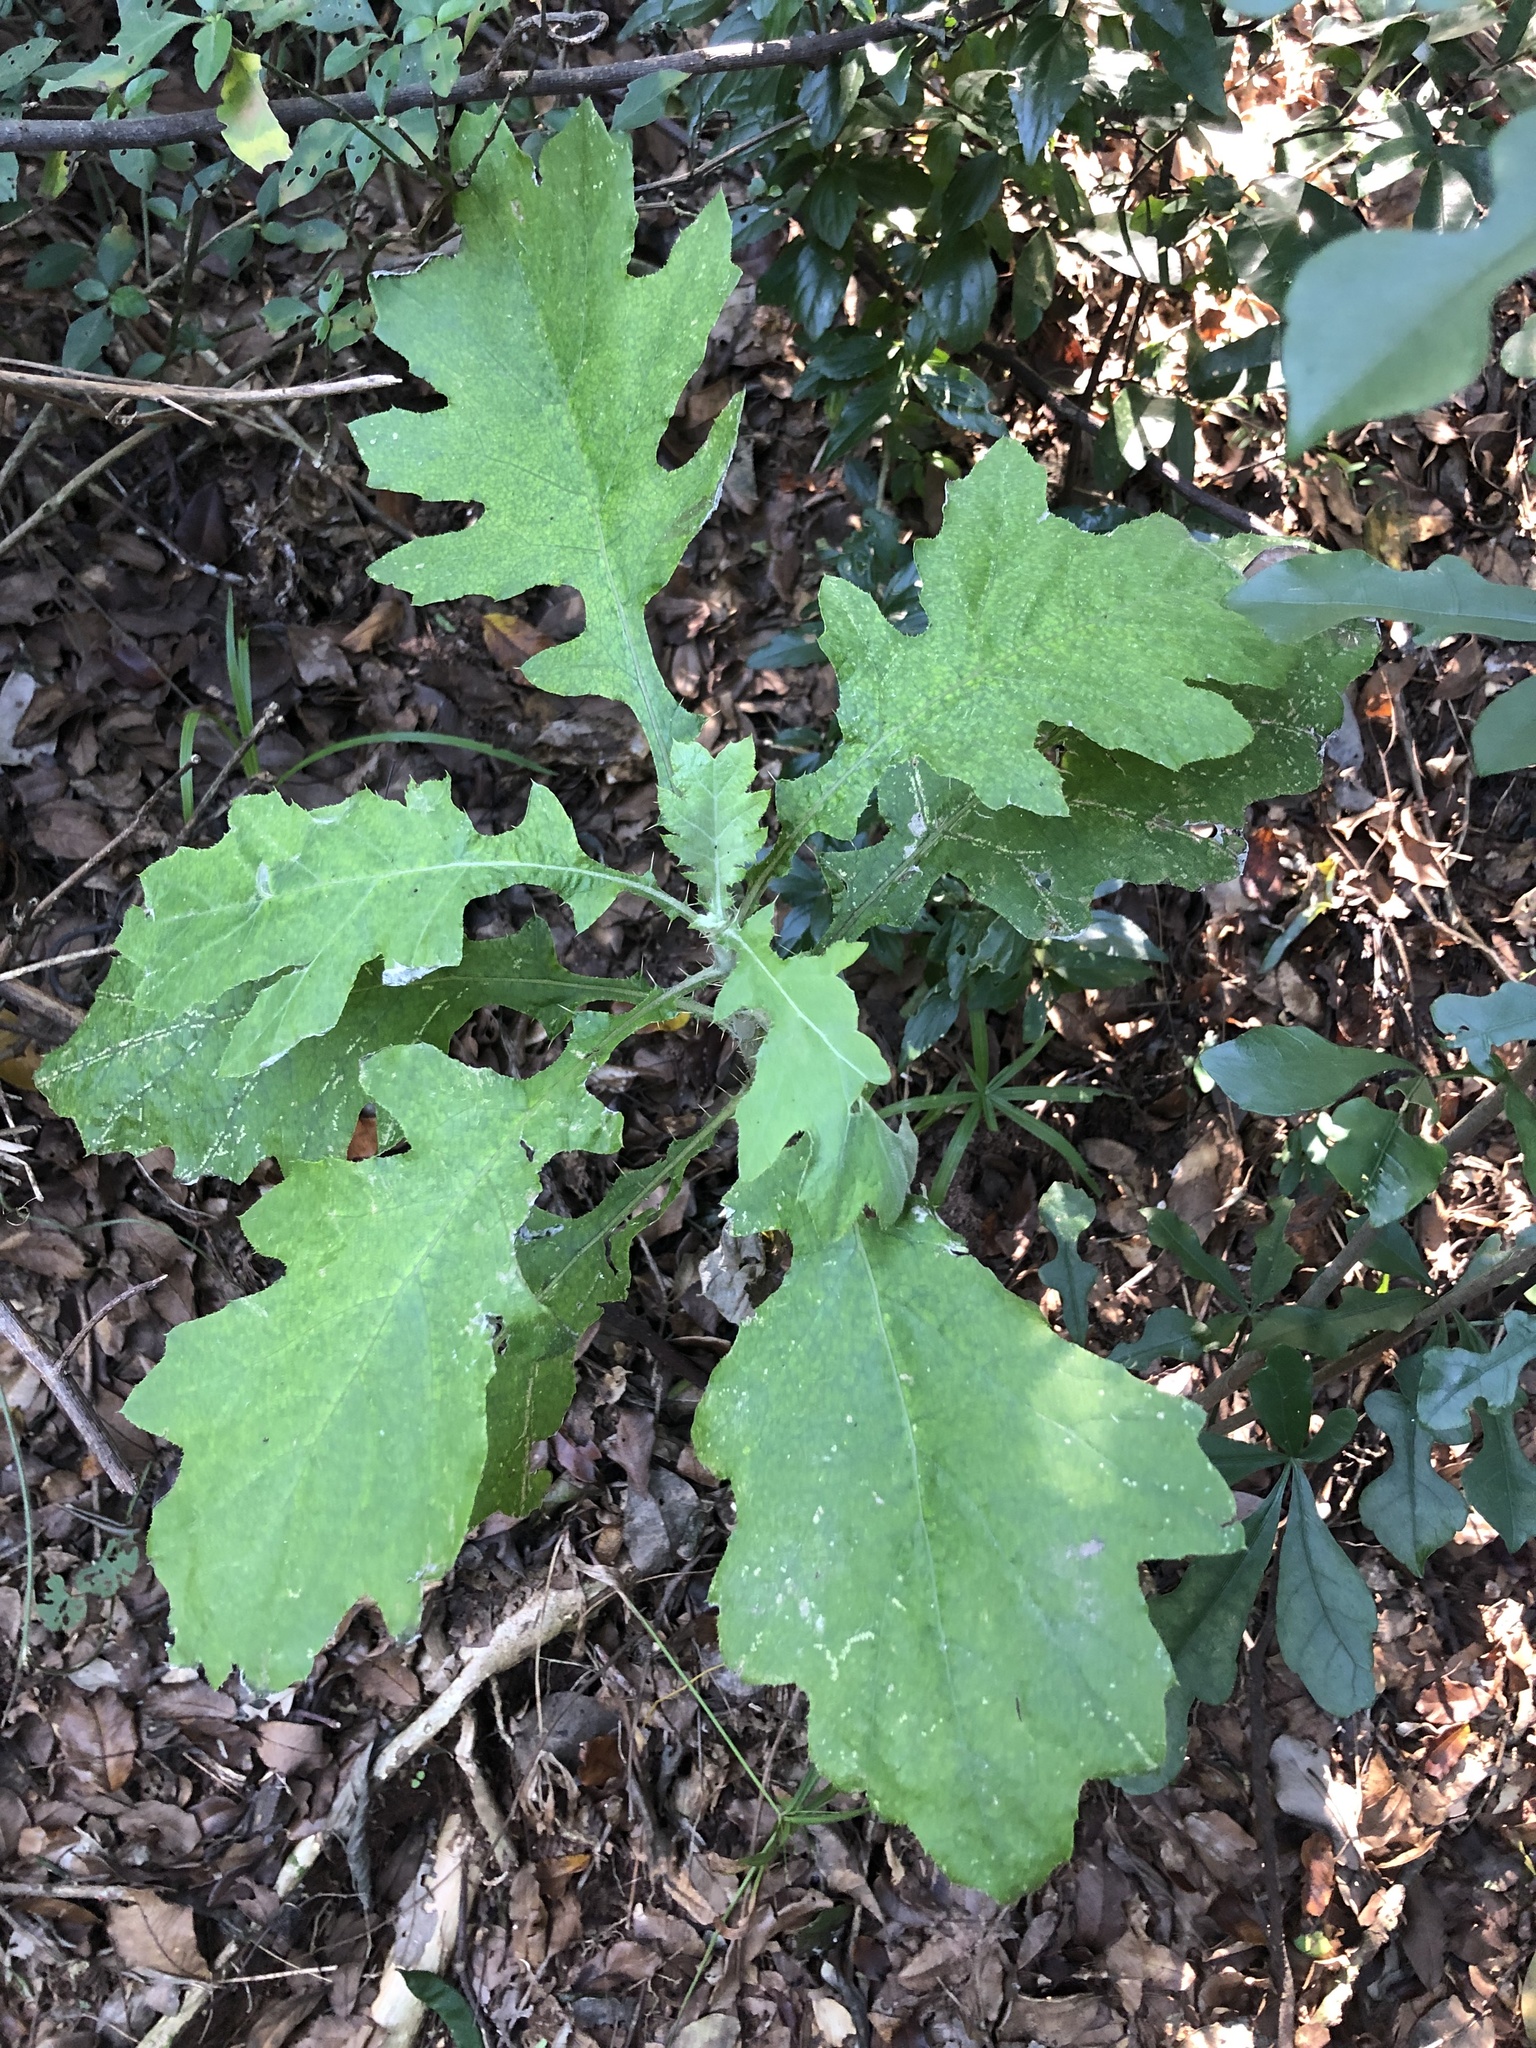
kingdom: Plantae
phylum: Tracheophyta
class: Magnoliopsida
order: Asterales
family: Asteraceae
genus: Berkheya
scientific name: Berkheya bipinnatifida
